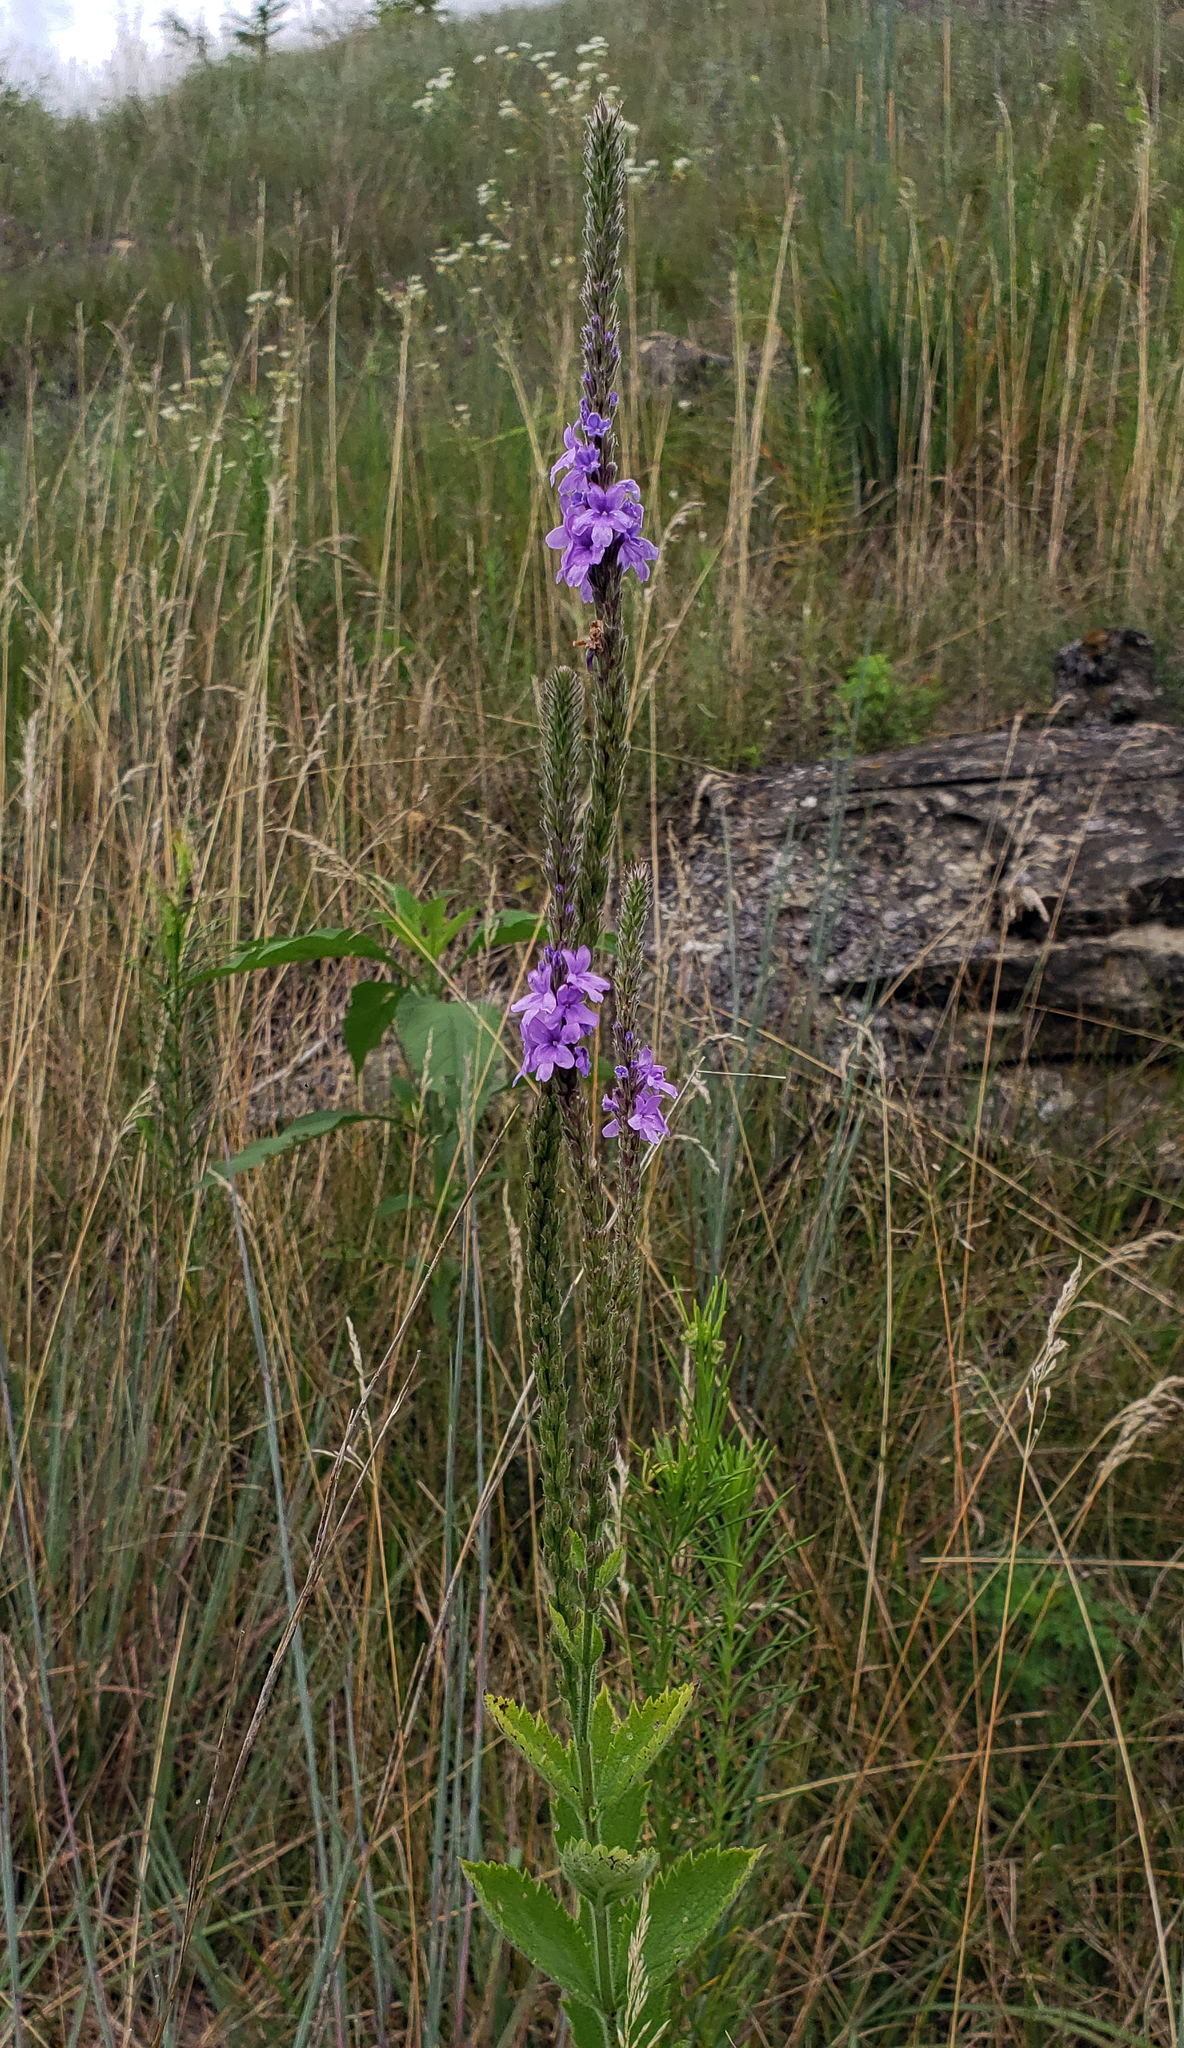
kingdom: Plantae
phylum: Tracheophyta
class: Magnoliopsida
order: Lamiales
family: Verbenaceae
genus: Verbena
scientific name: Verbena stricta
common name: Hoary vervain
